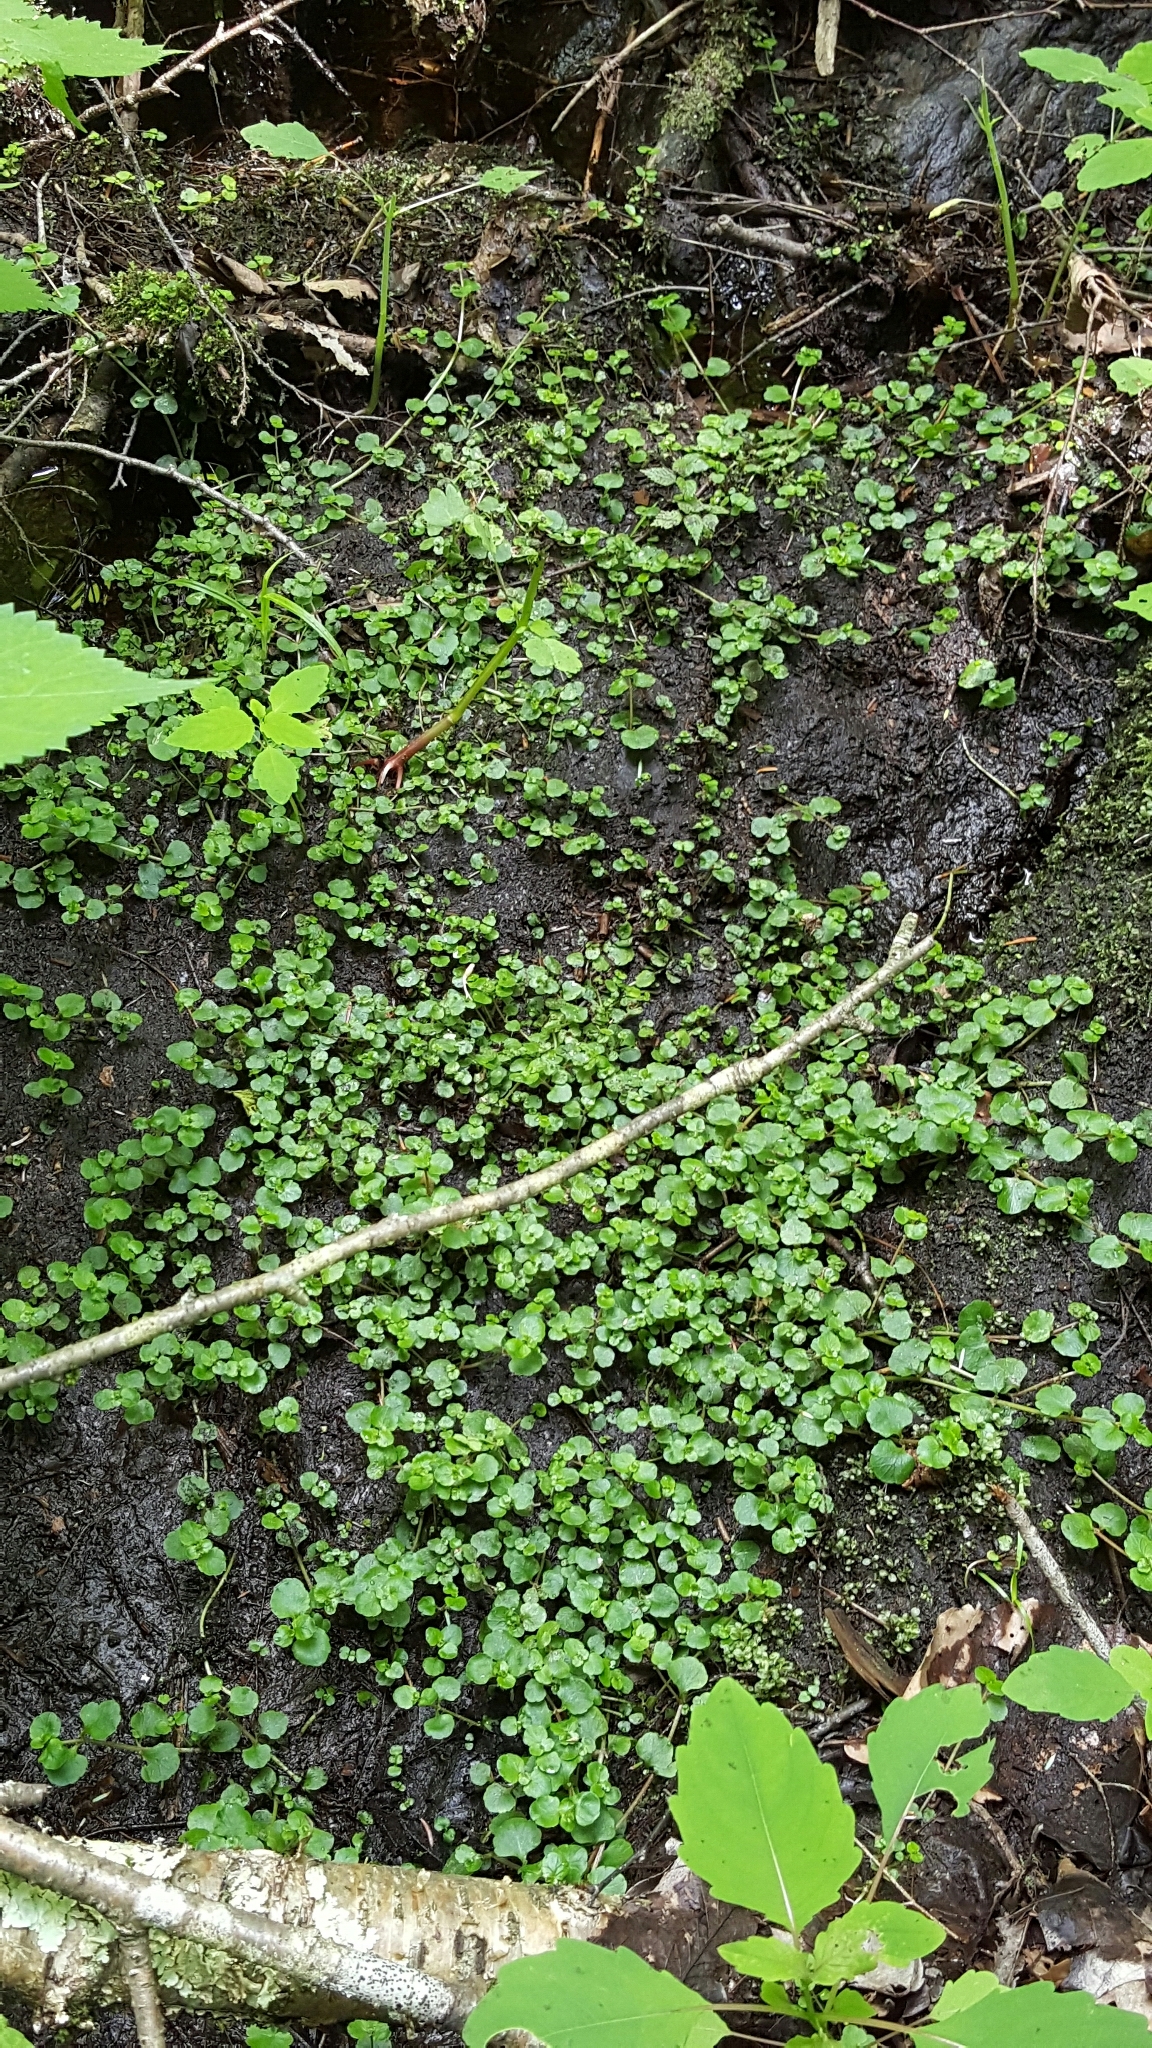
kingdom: Plantae
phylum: Tracheophyta
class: Magnoliopsida
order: Saxifragales
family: Saxifragaceae
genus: Chrysosplenium
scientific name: Chrysosplenium americanum
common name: American golden-saxifrage
